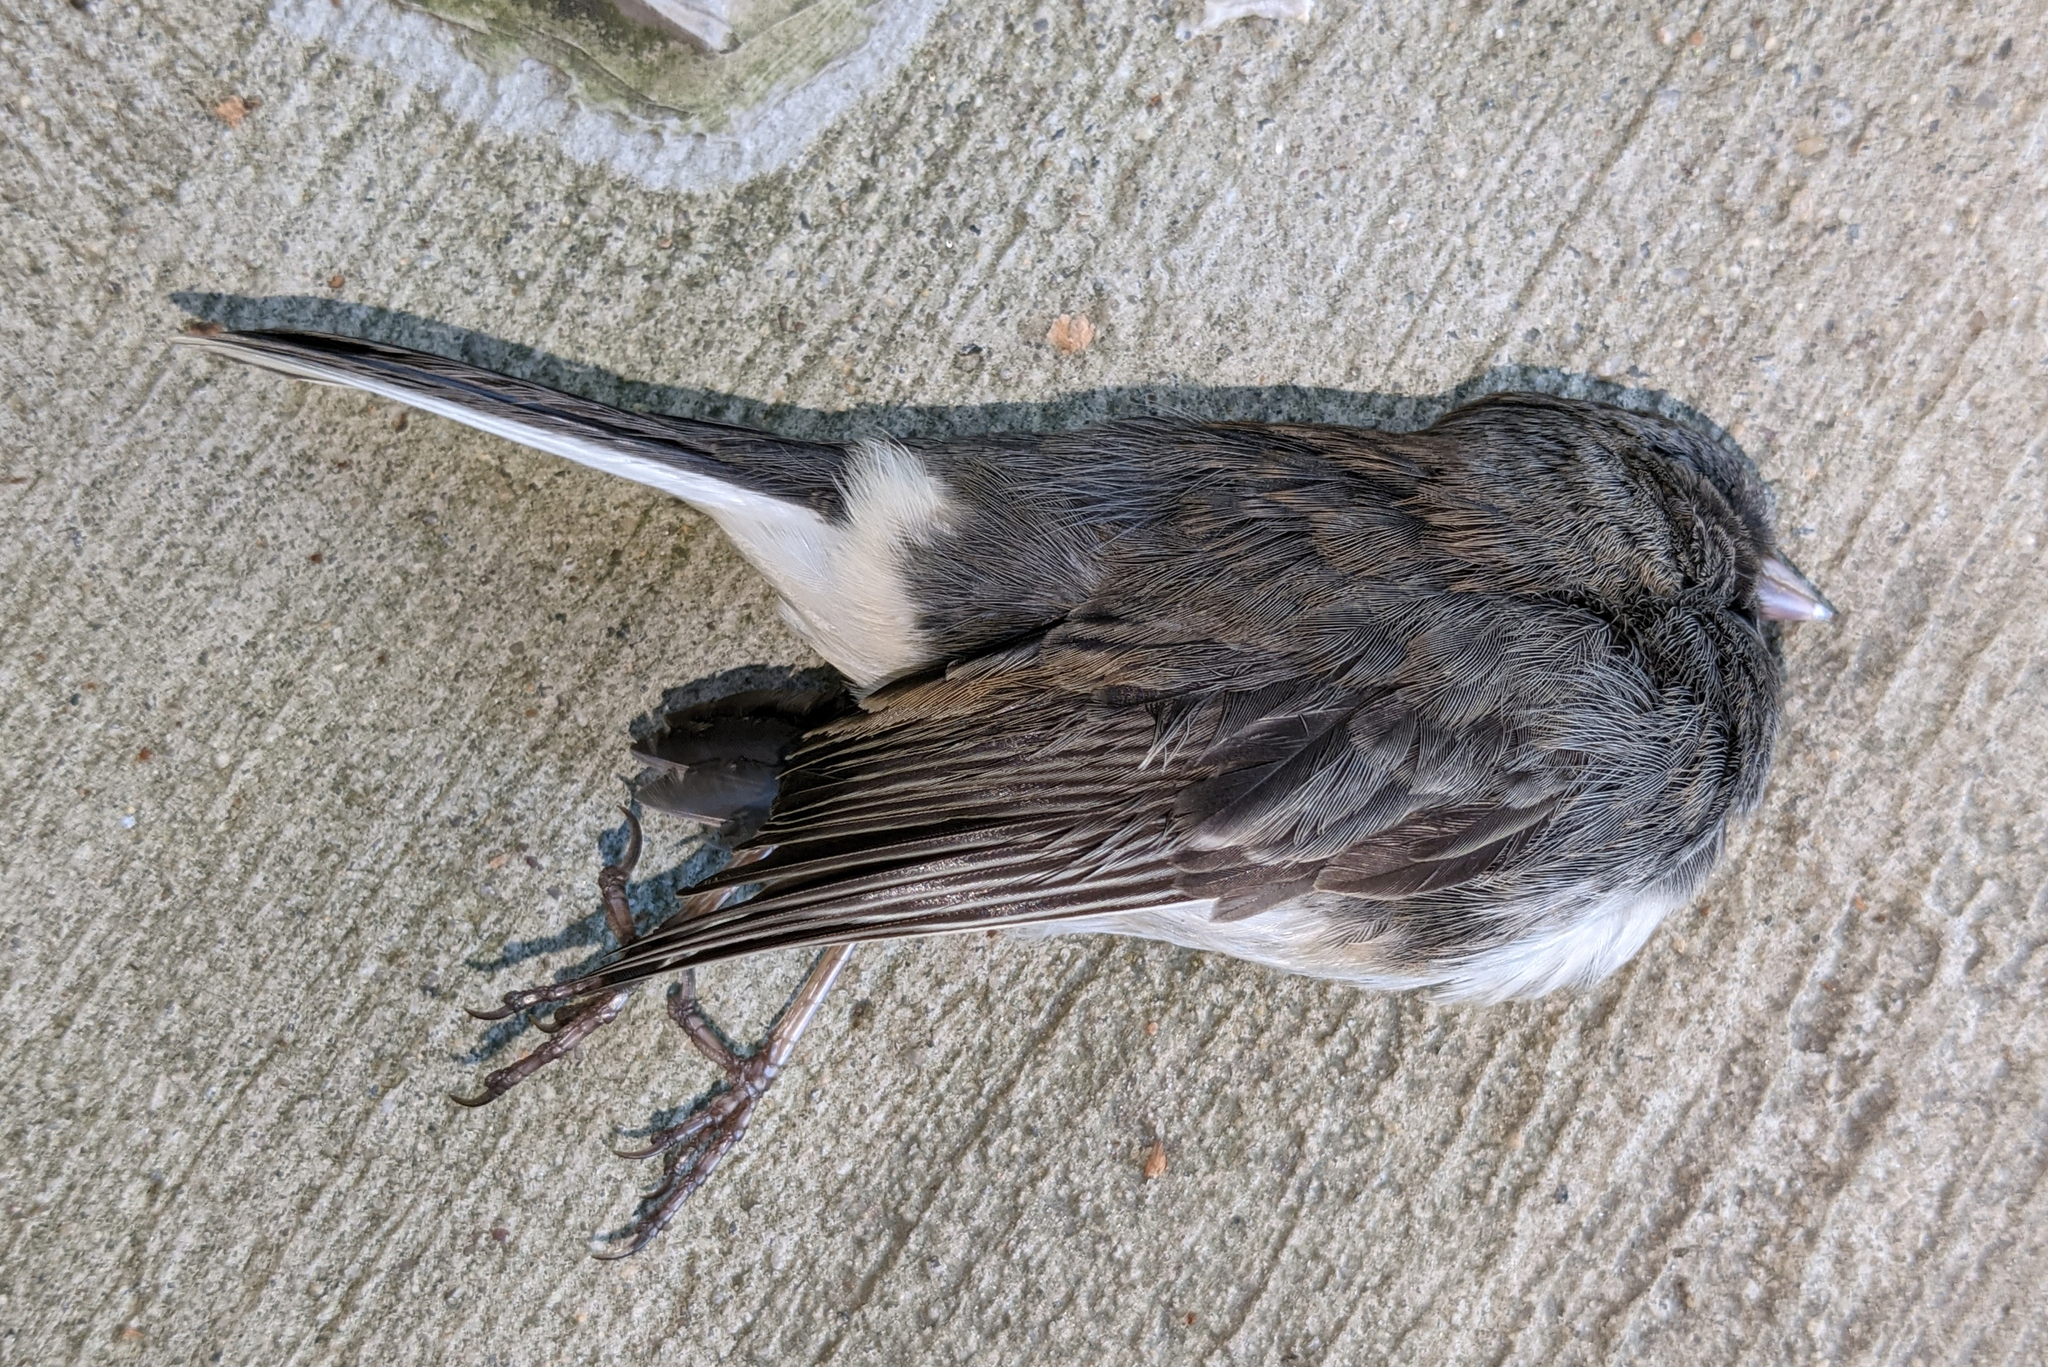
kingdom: Animalia
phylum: Chordata
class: Aves
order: Passeriformes
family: Passerellidae
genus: Junco
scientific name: Junco hyemalis
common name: Dark-eyed junco
